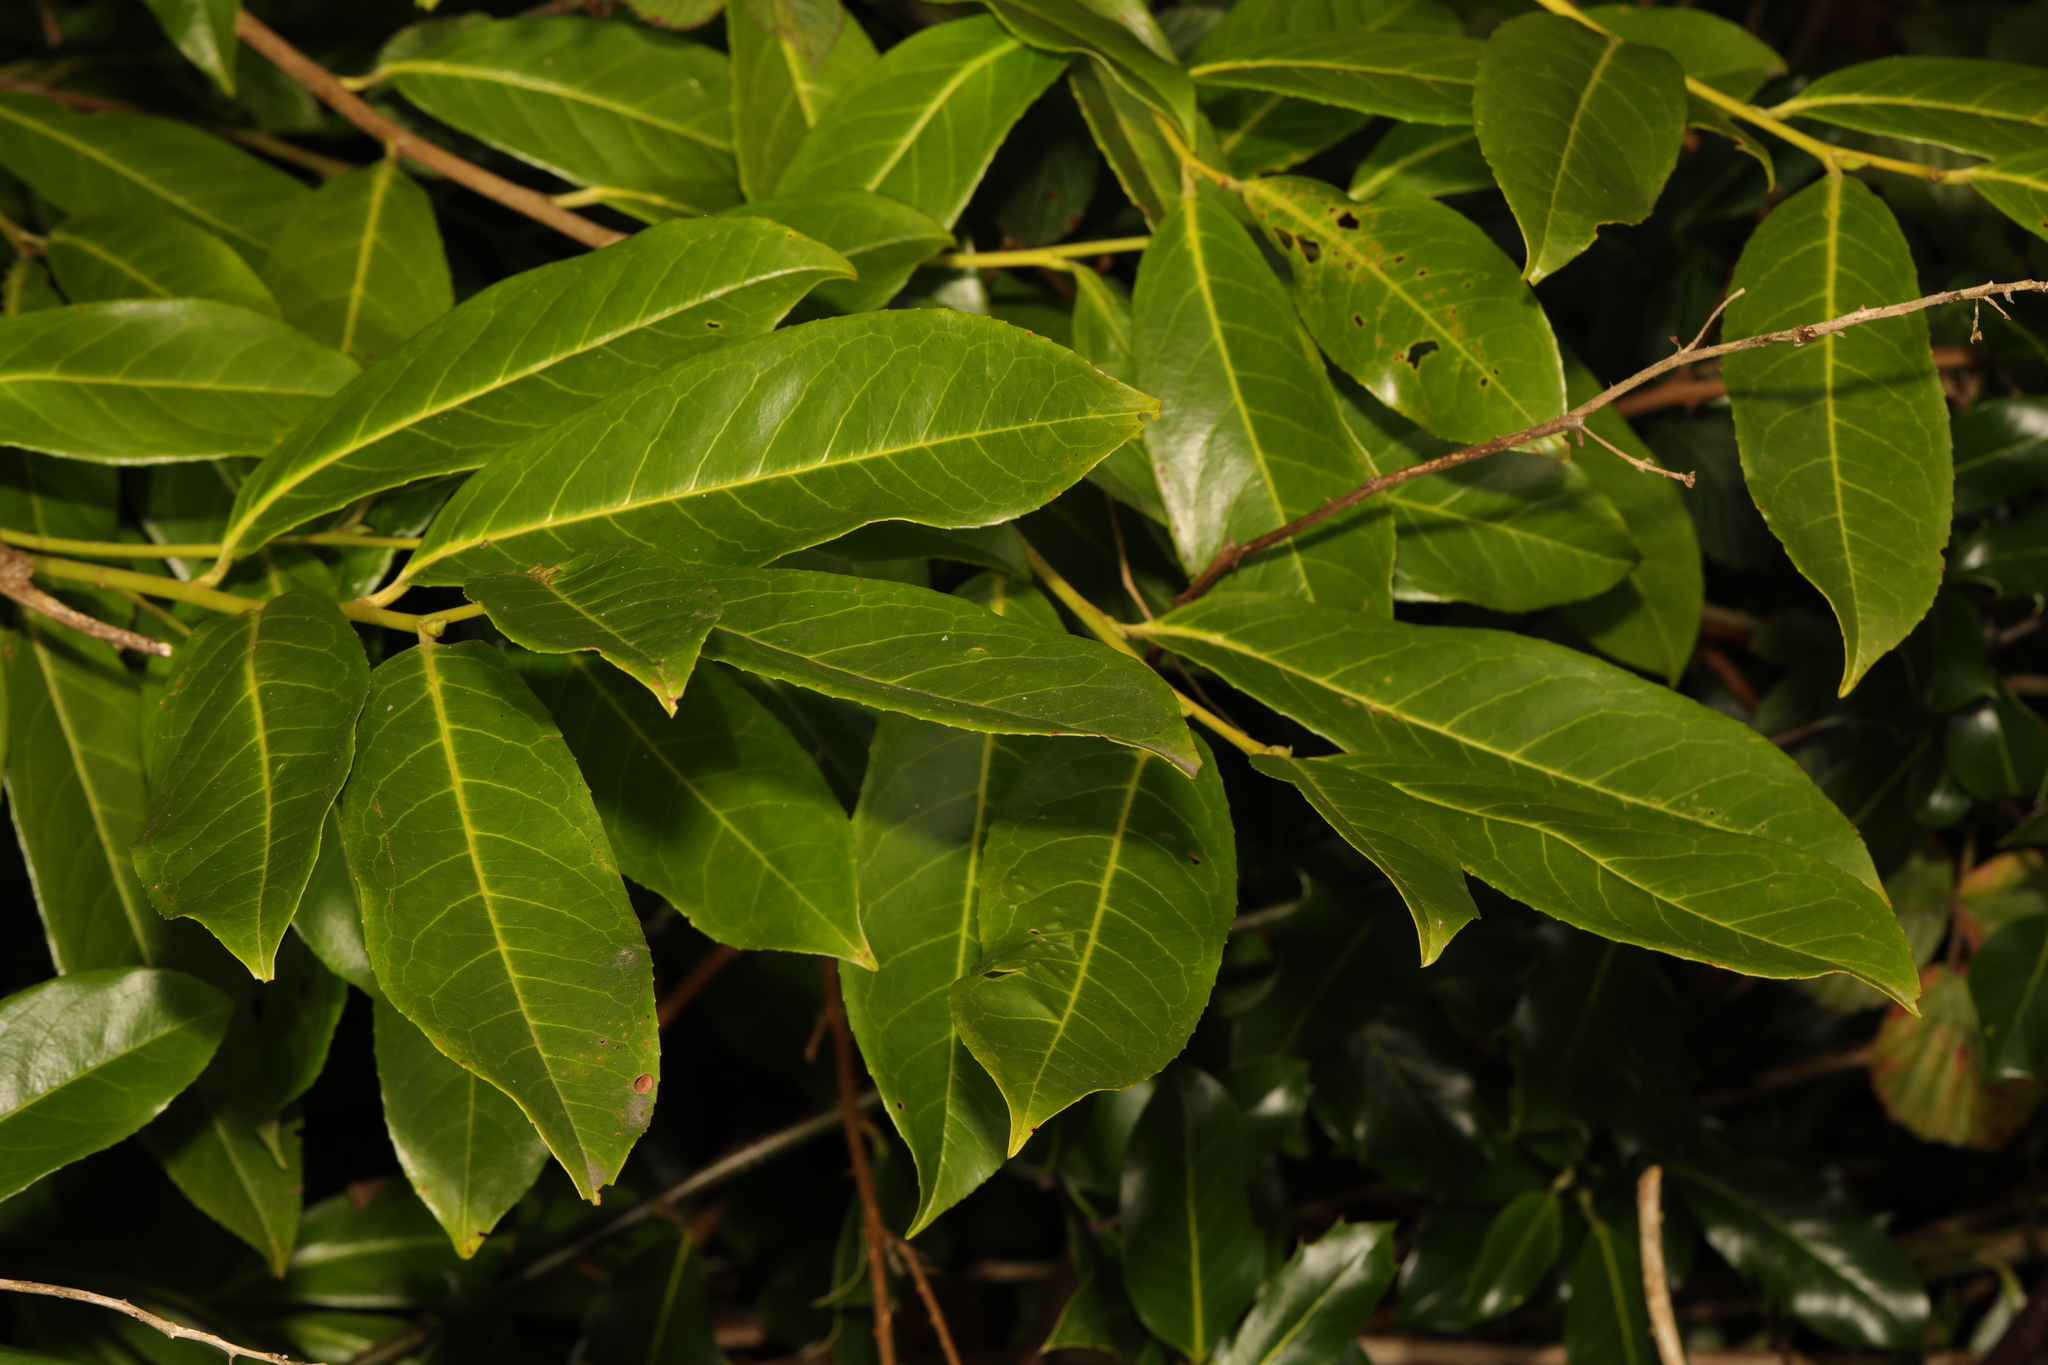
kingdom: Plantae
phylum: Tracheophyta
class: Magnoliopsida
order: Rosales
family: Rosaceae
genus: Prunus
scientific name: Prunus laurocerasus
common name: Cherry laurel
